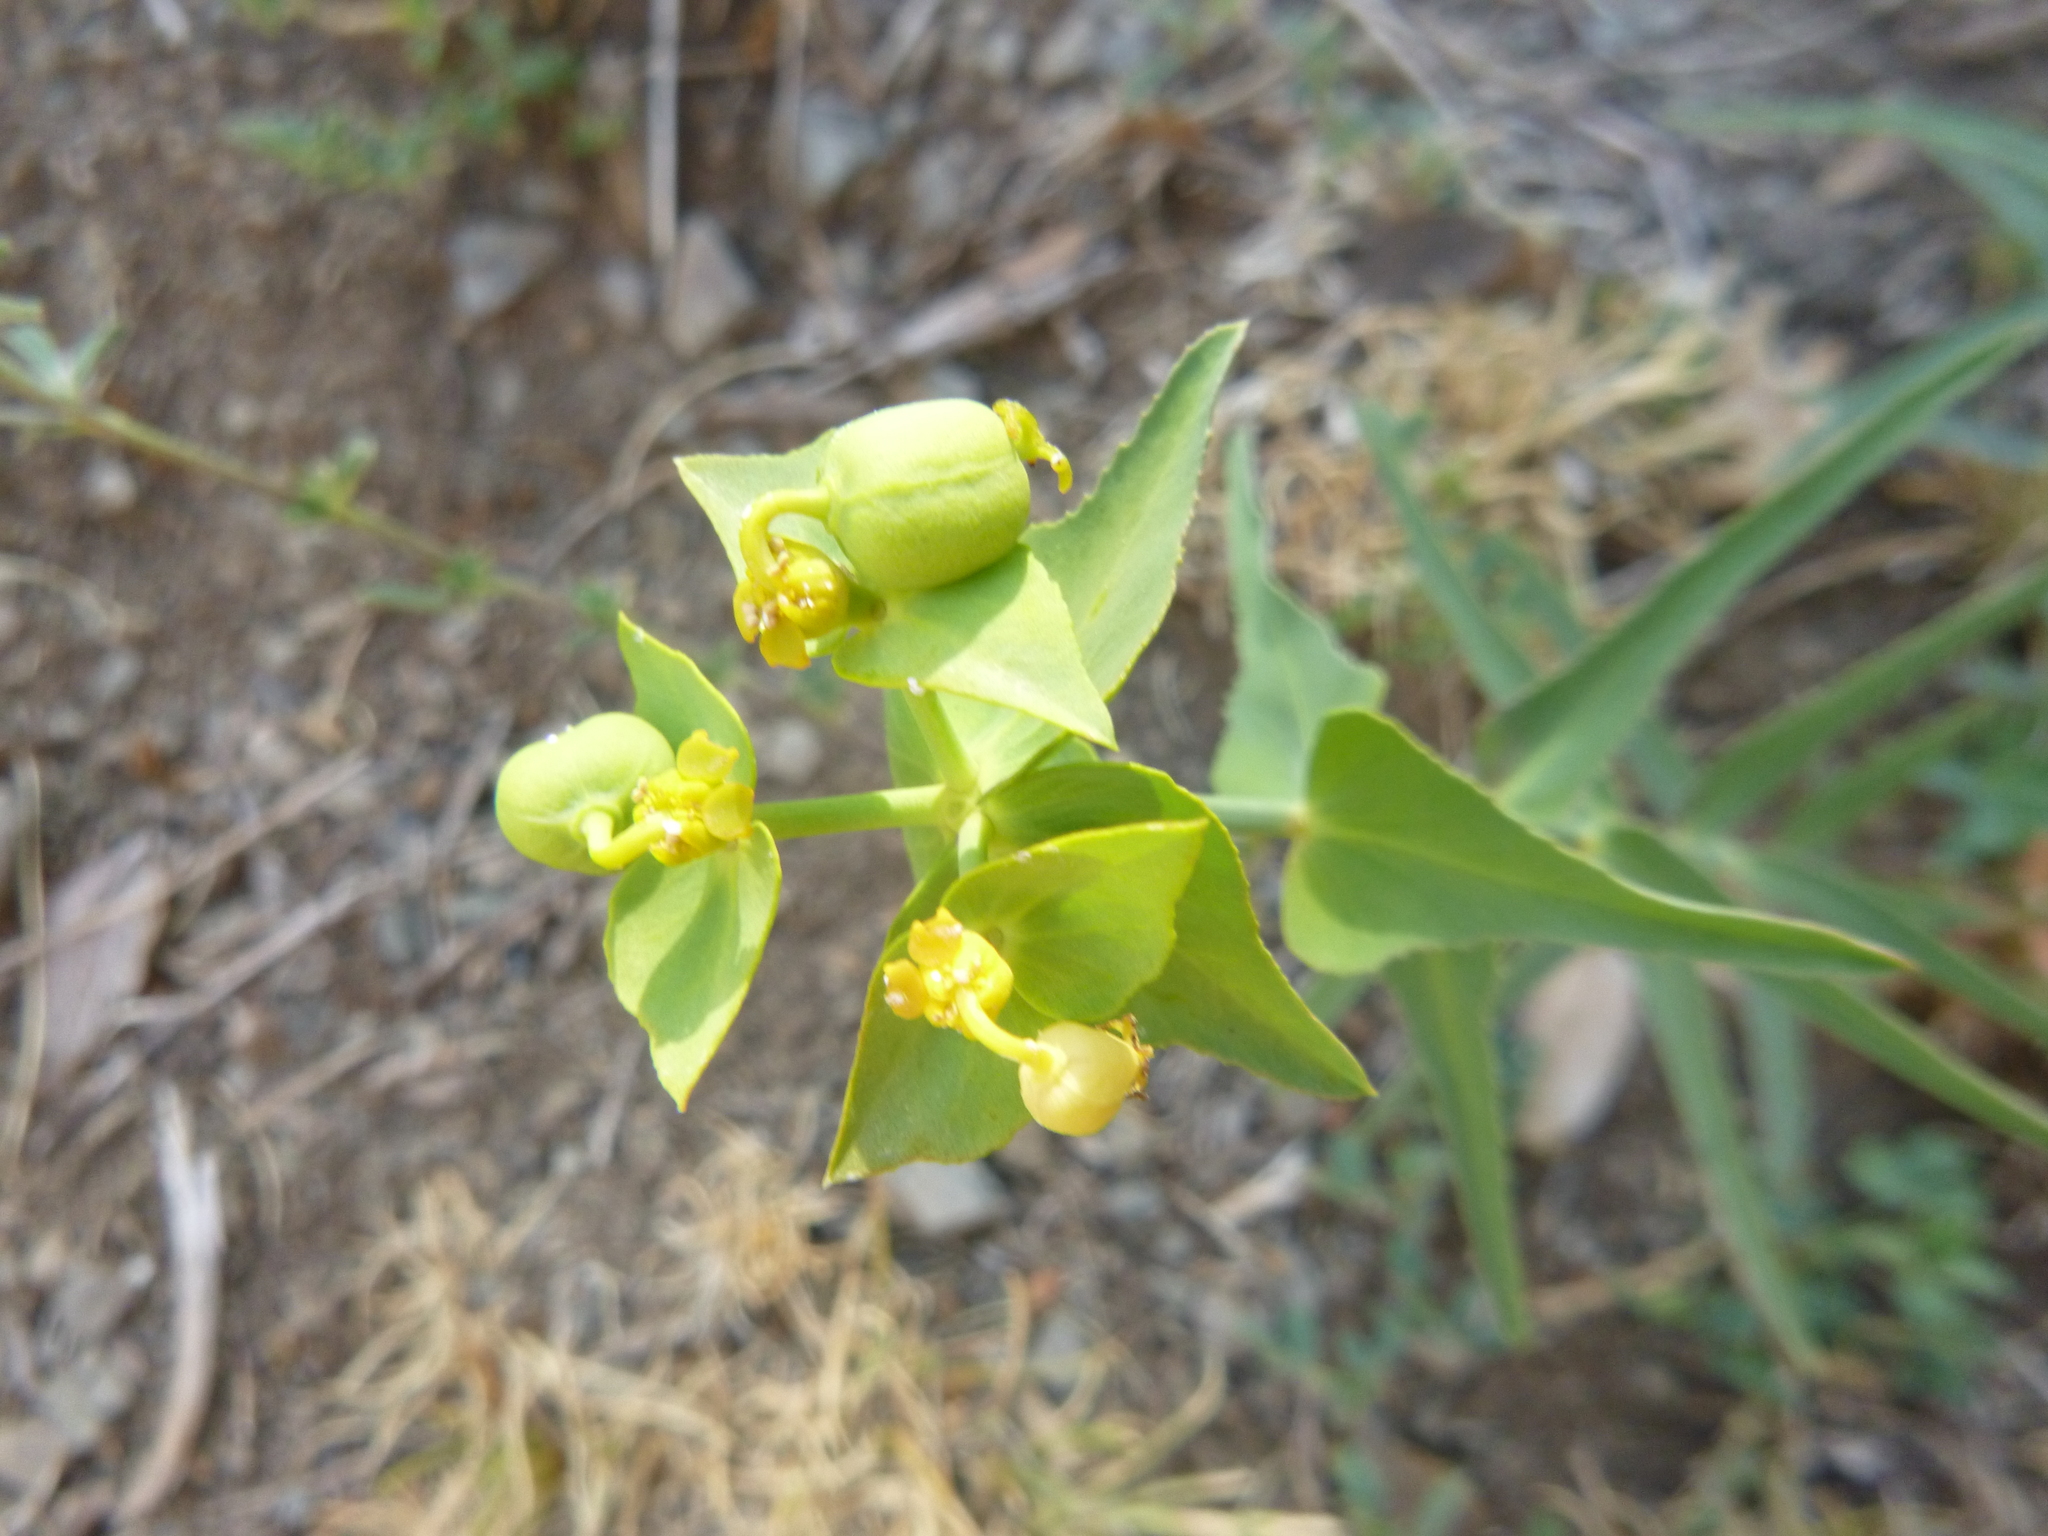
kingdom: Plantae
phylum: Tracheophyta
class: Magnoliopsida
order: Malpighiales
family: Euphorbiaceae
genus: Euphorbia
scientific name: Euphorbia serrata
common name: Serrate spurge
